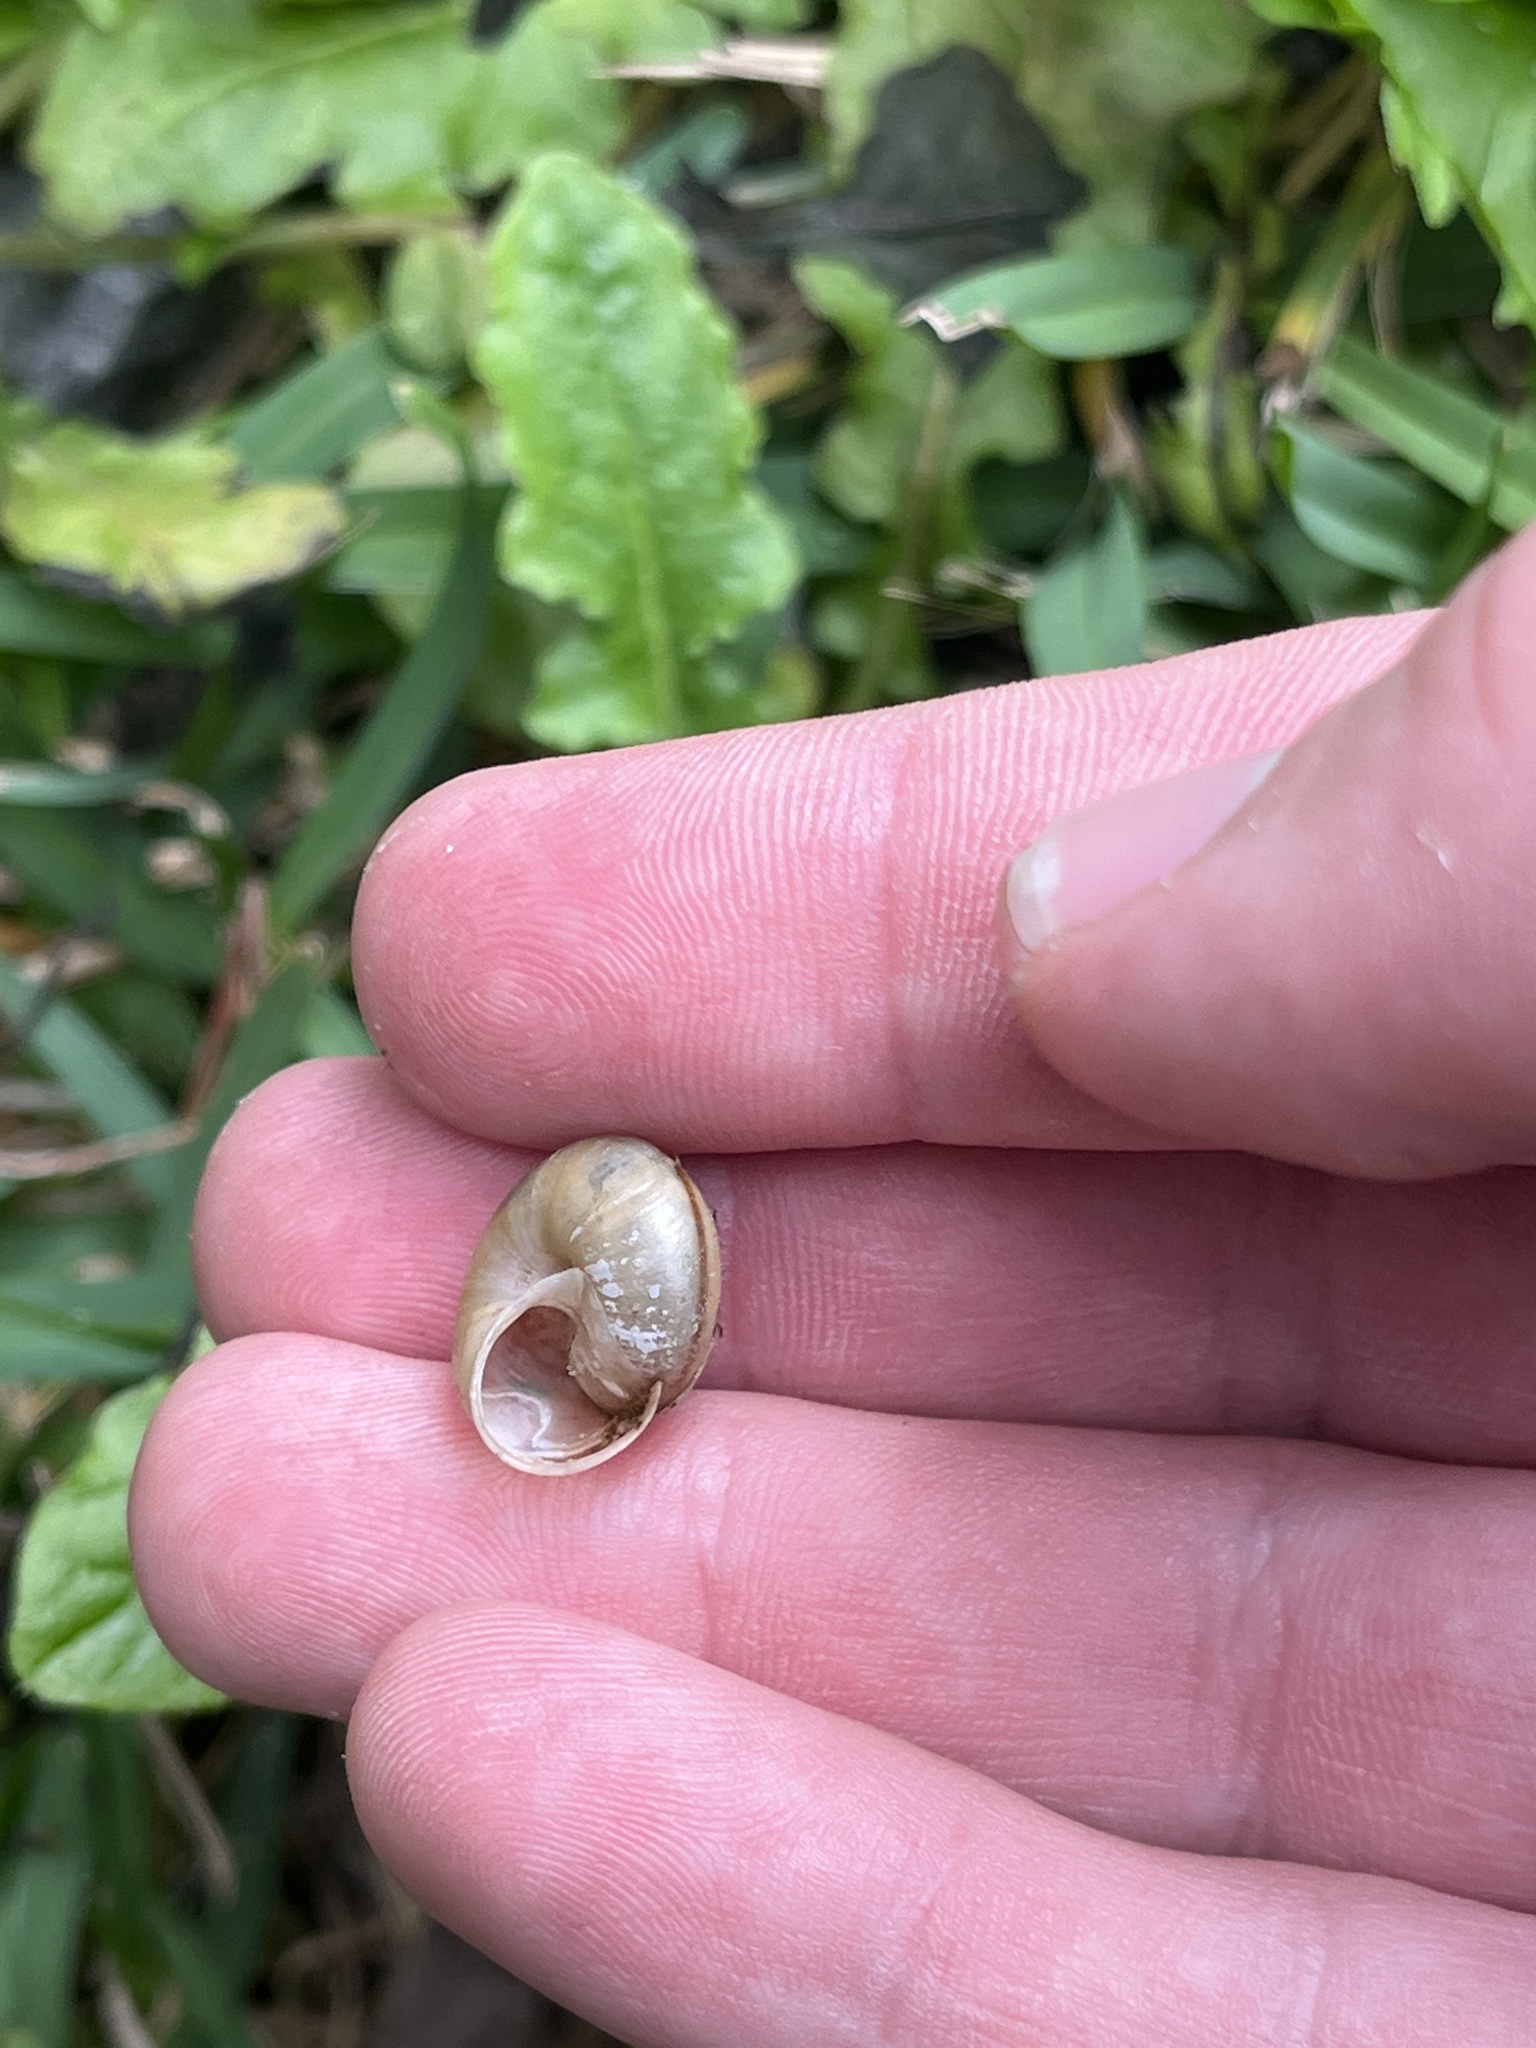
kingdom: Animalia
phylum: Mollusca
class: Gastropoda
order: Stylommatophora
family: Camaenidae
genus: Bradybaena
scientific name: Bradybaena similaris
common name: Asian trampsnail
